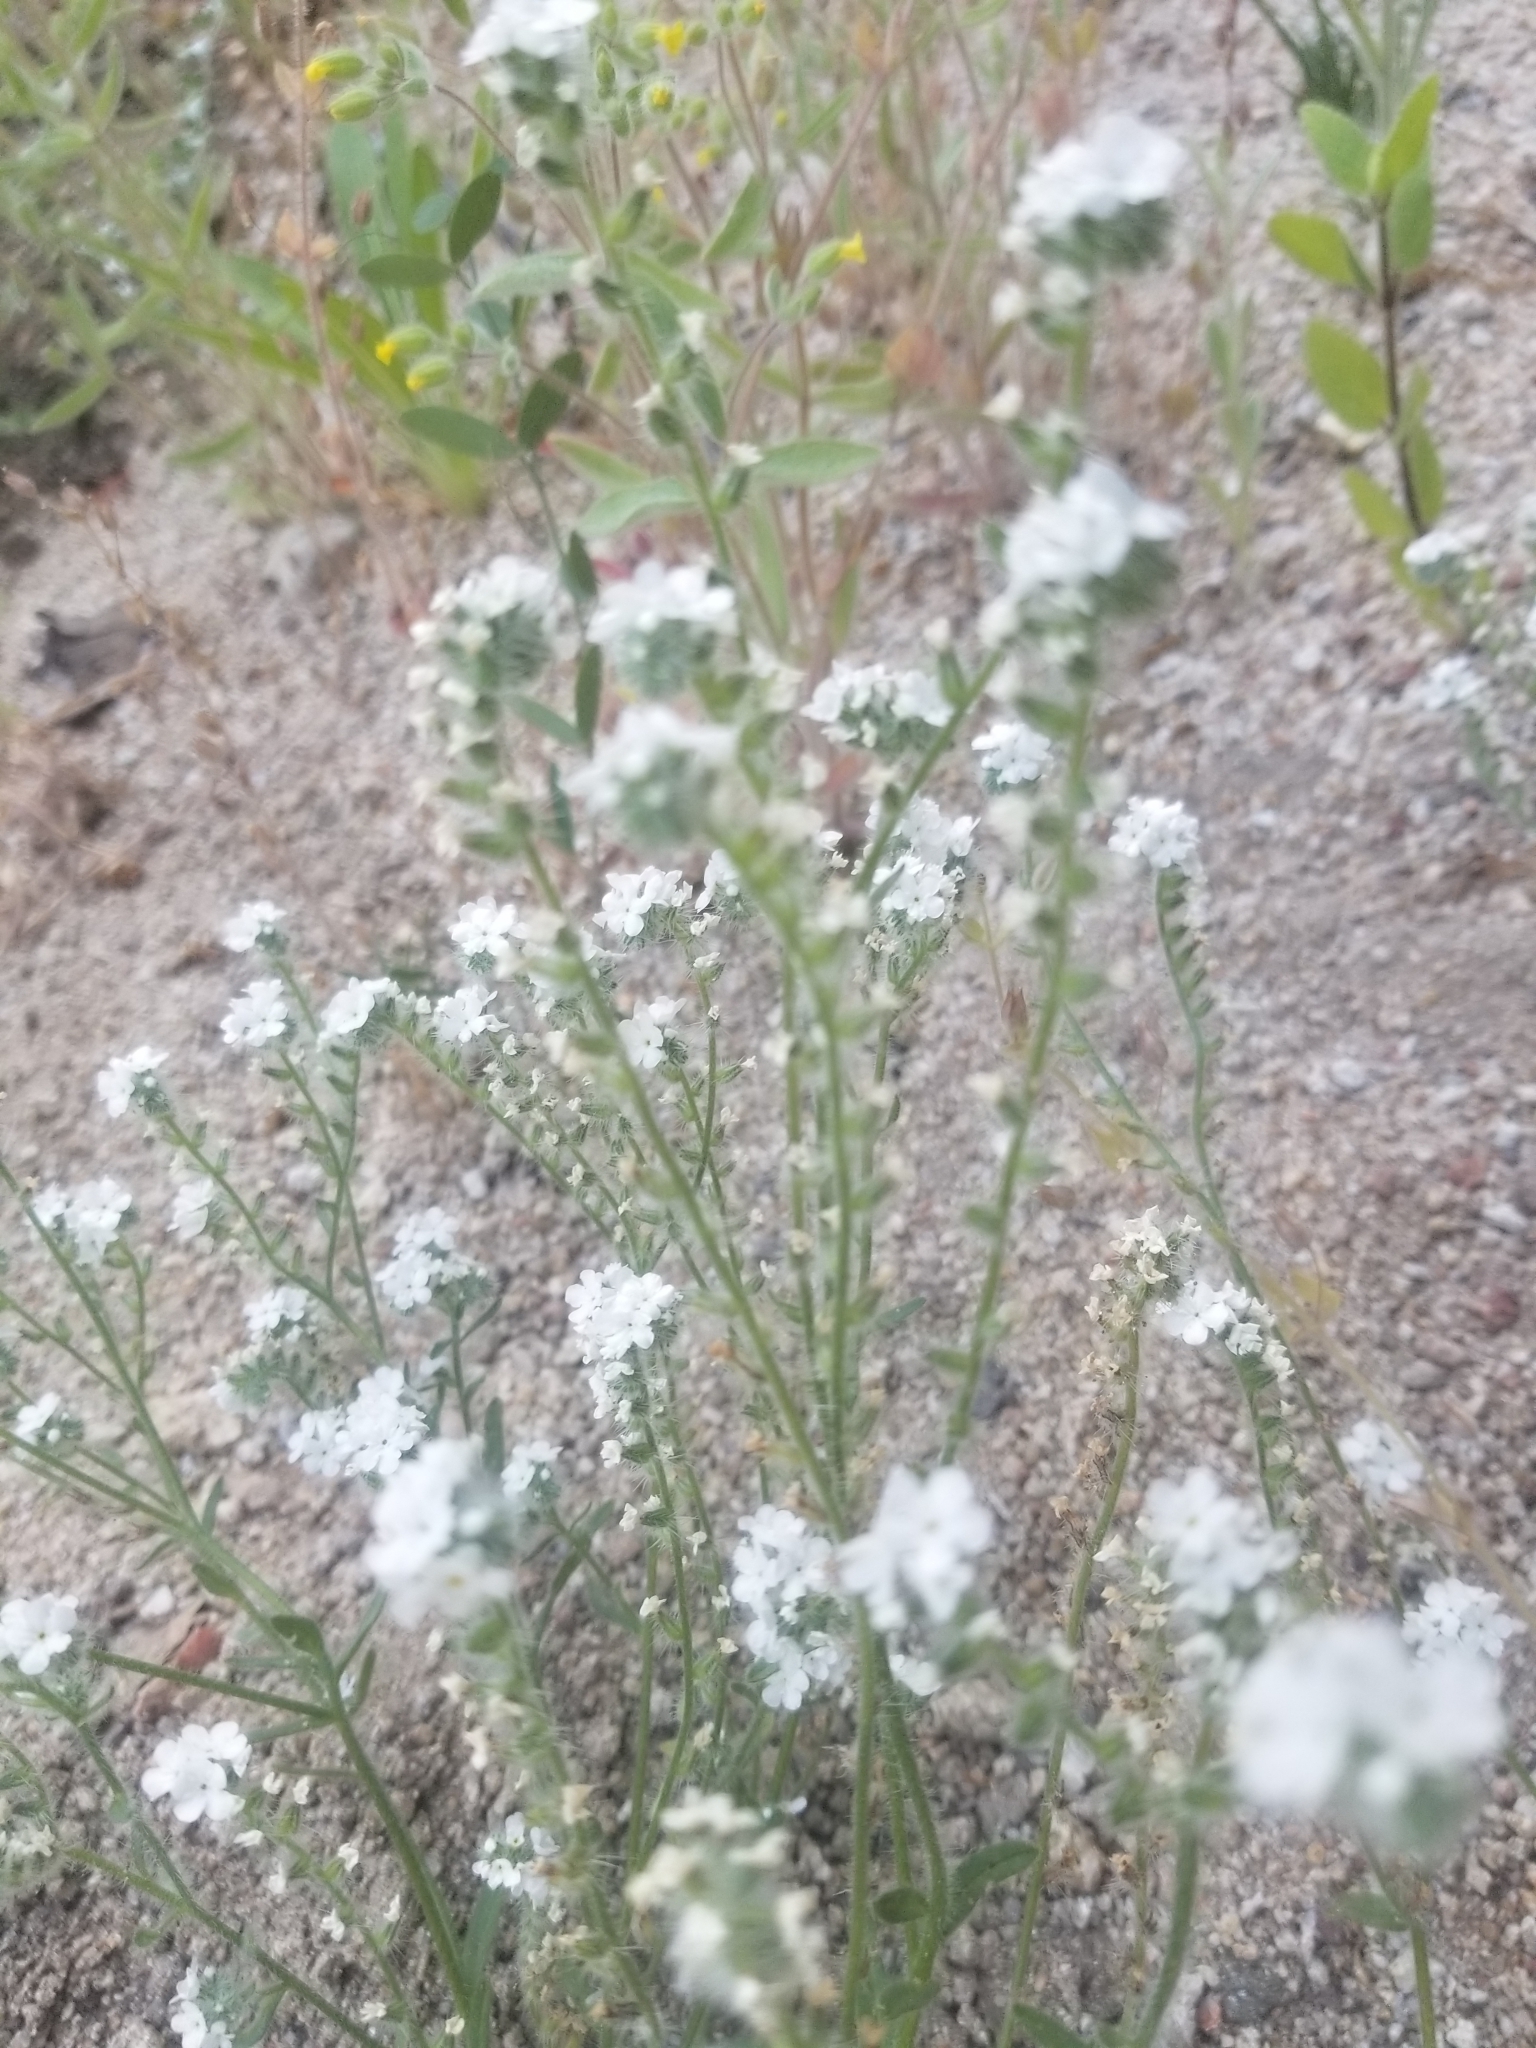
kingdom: Plantae
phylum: Tracheophyta
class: Magnoliopsida
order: Boraginales
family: Boraginaceae
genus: Cryptantha
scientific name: Cryptantha intermedia
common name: Clearwater cryptantha
